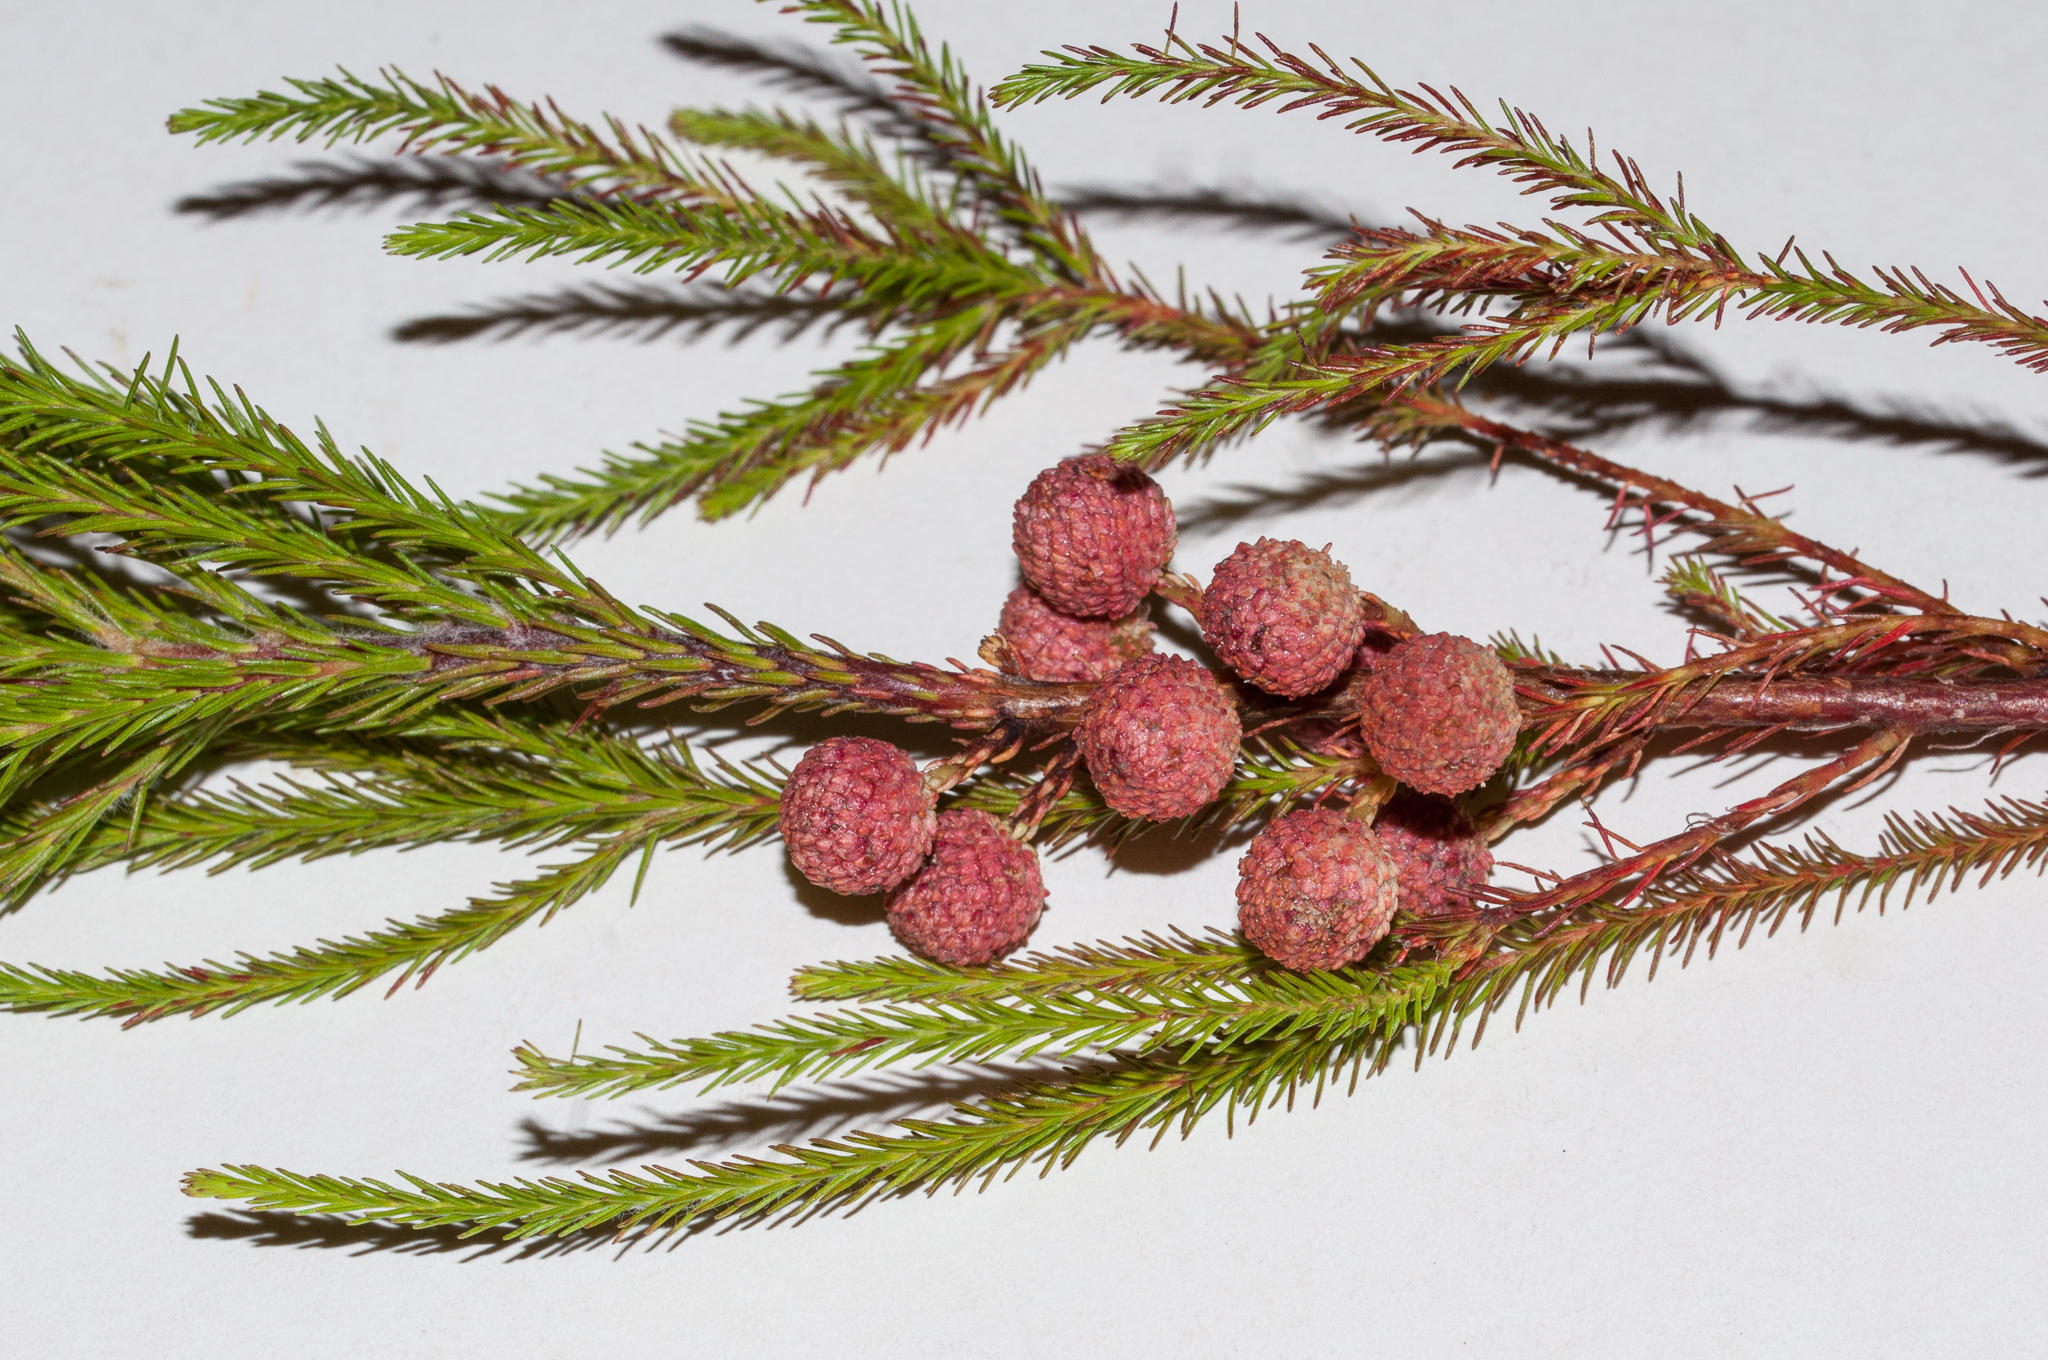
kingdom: Plantae
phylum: Tracheophyta
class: Magnoliopsida
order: Bruniales
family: Bruniaceae
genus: Berzelia
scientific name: Berzelia lanuginosa
